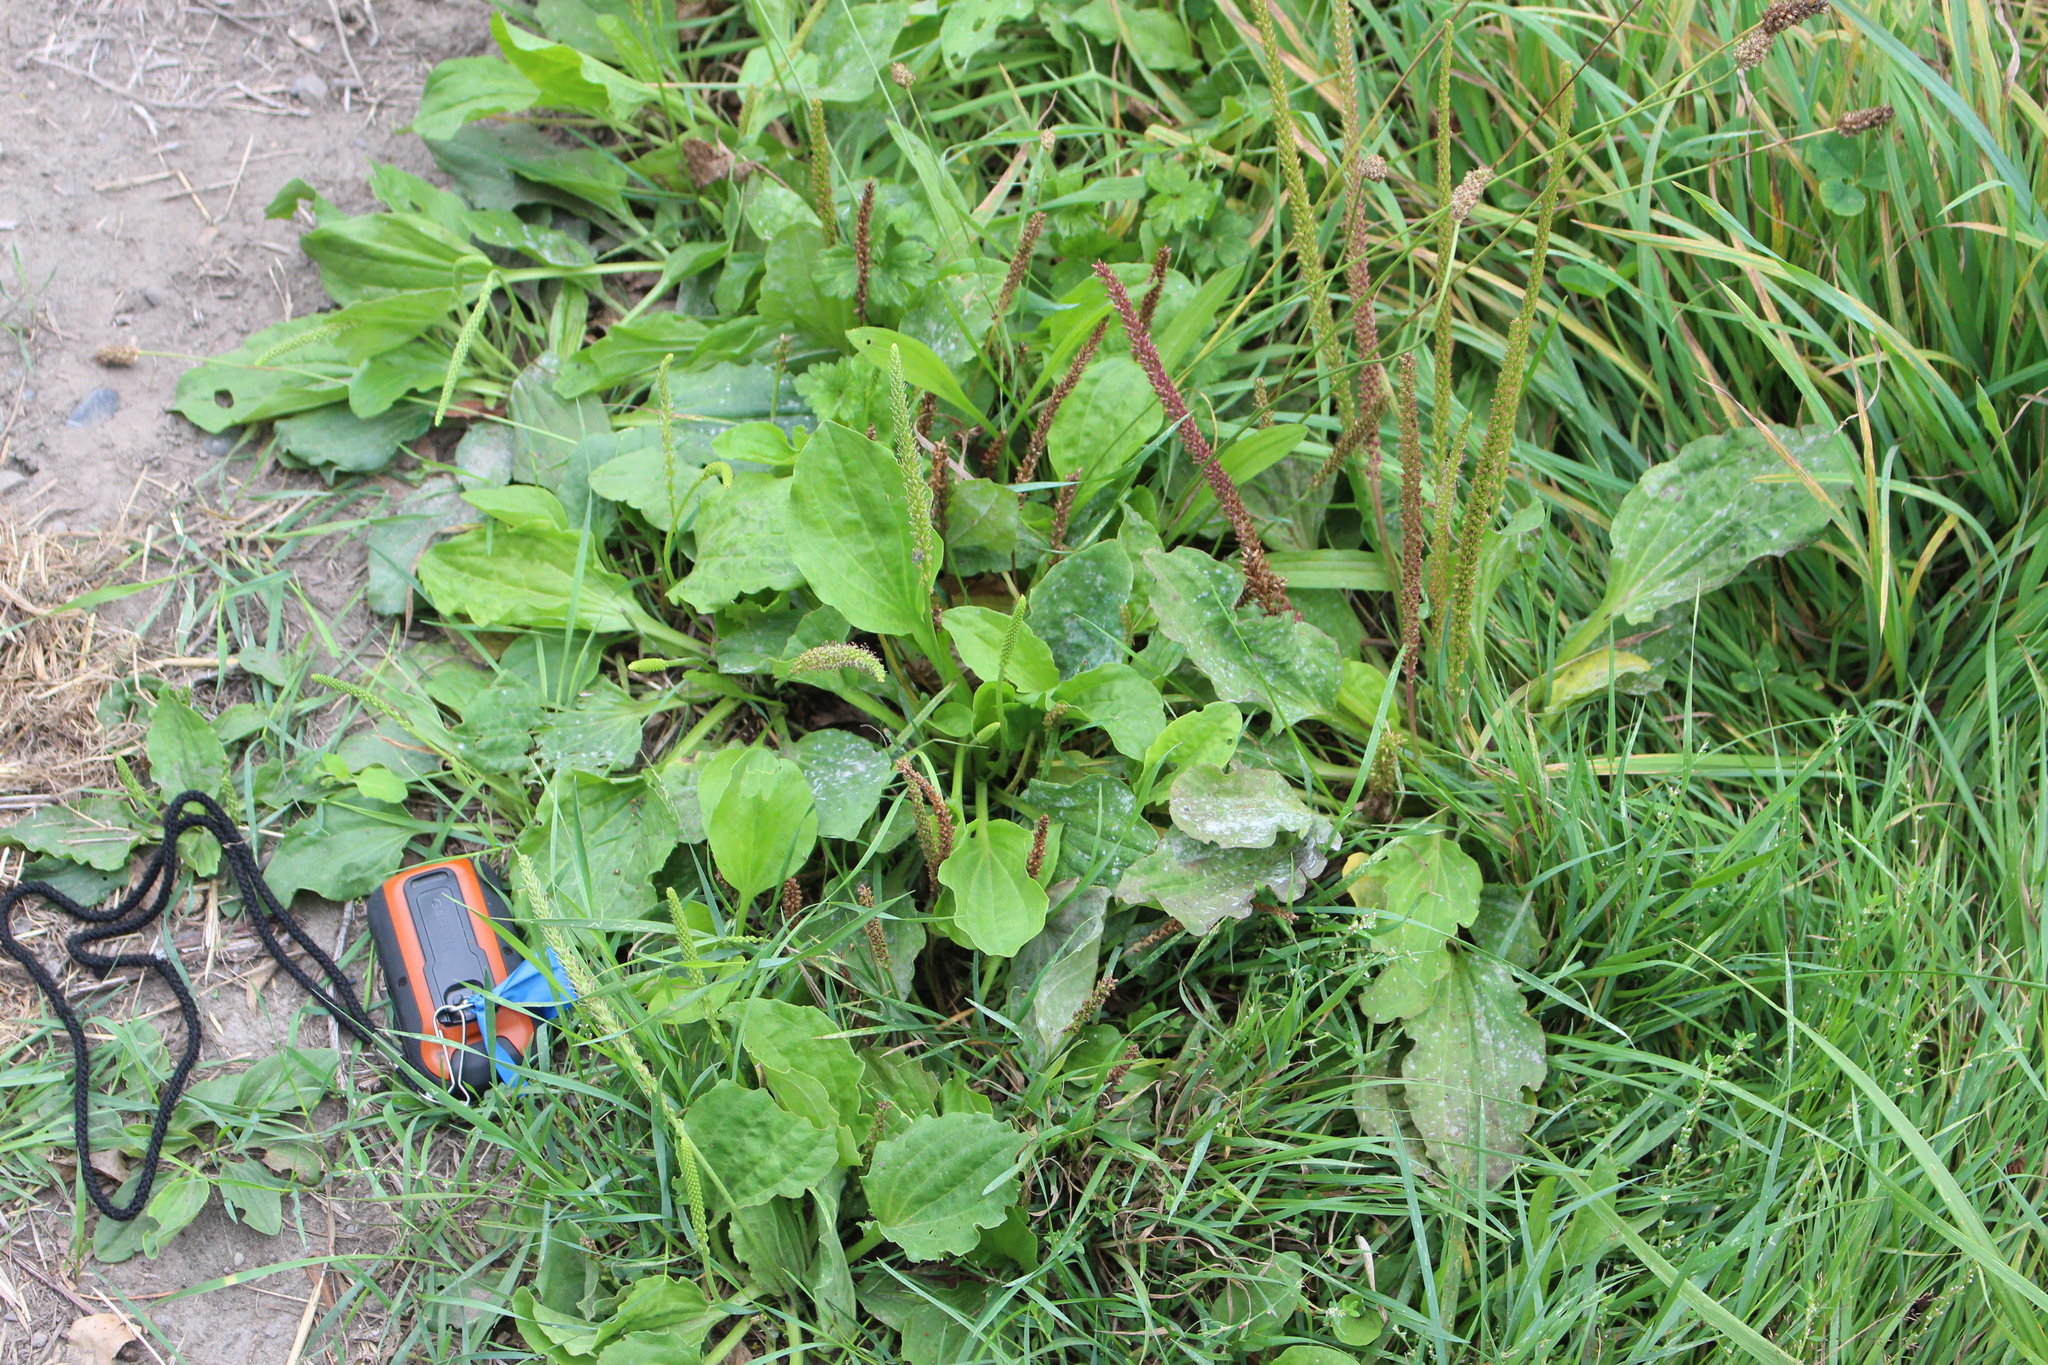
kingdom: Plantae
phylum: Tracheophyta
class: Magnoliopsida
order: Lamiales
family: Plantaginaceae
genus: Plantago
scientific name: Plantago major
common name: Common plantain
